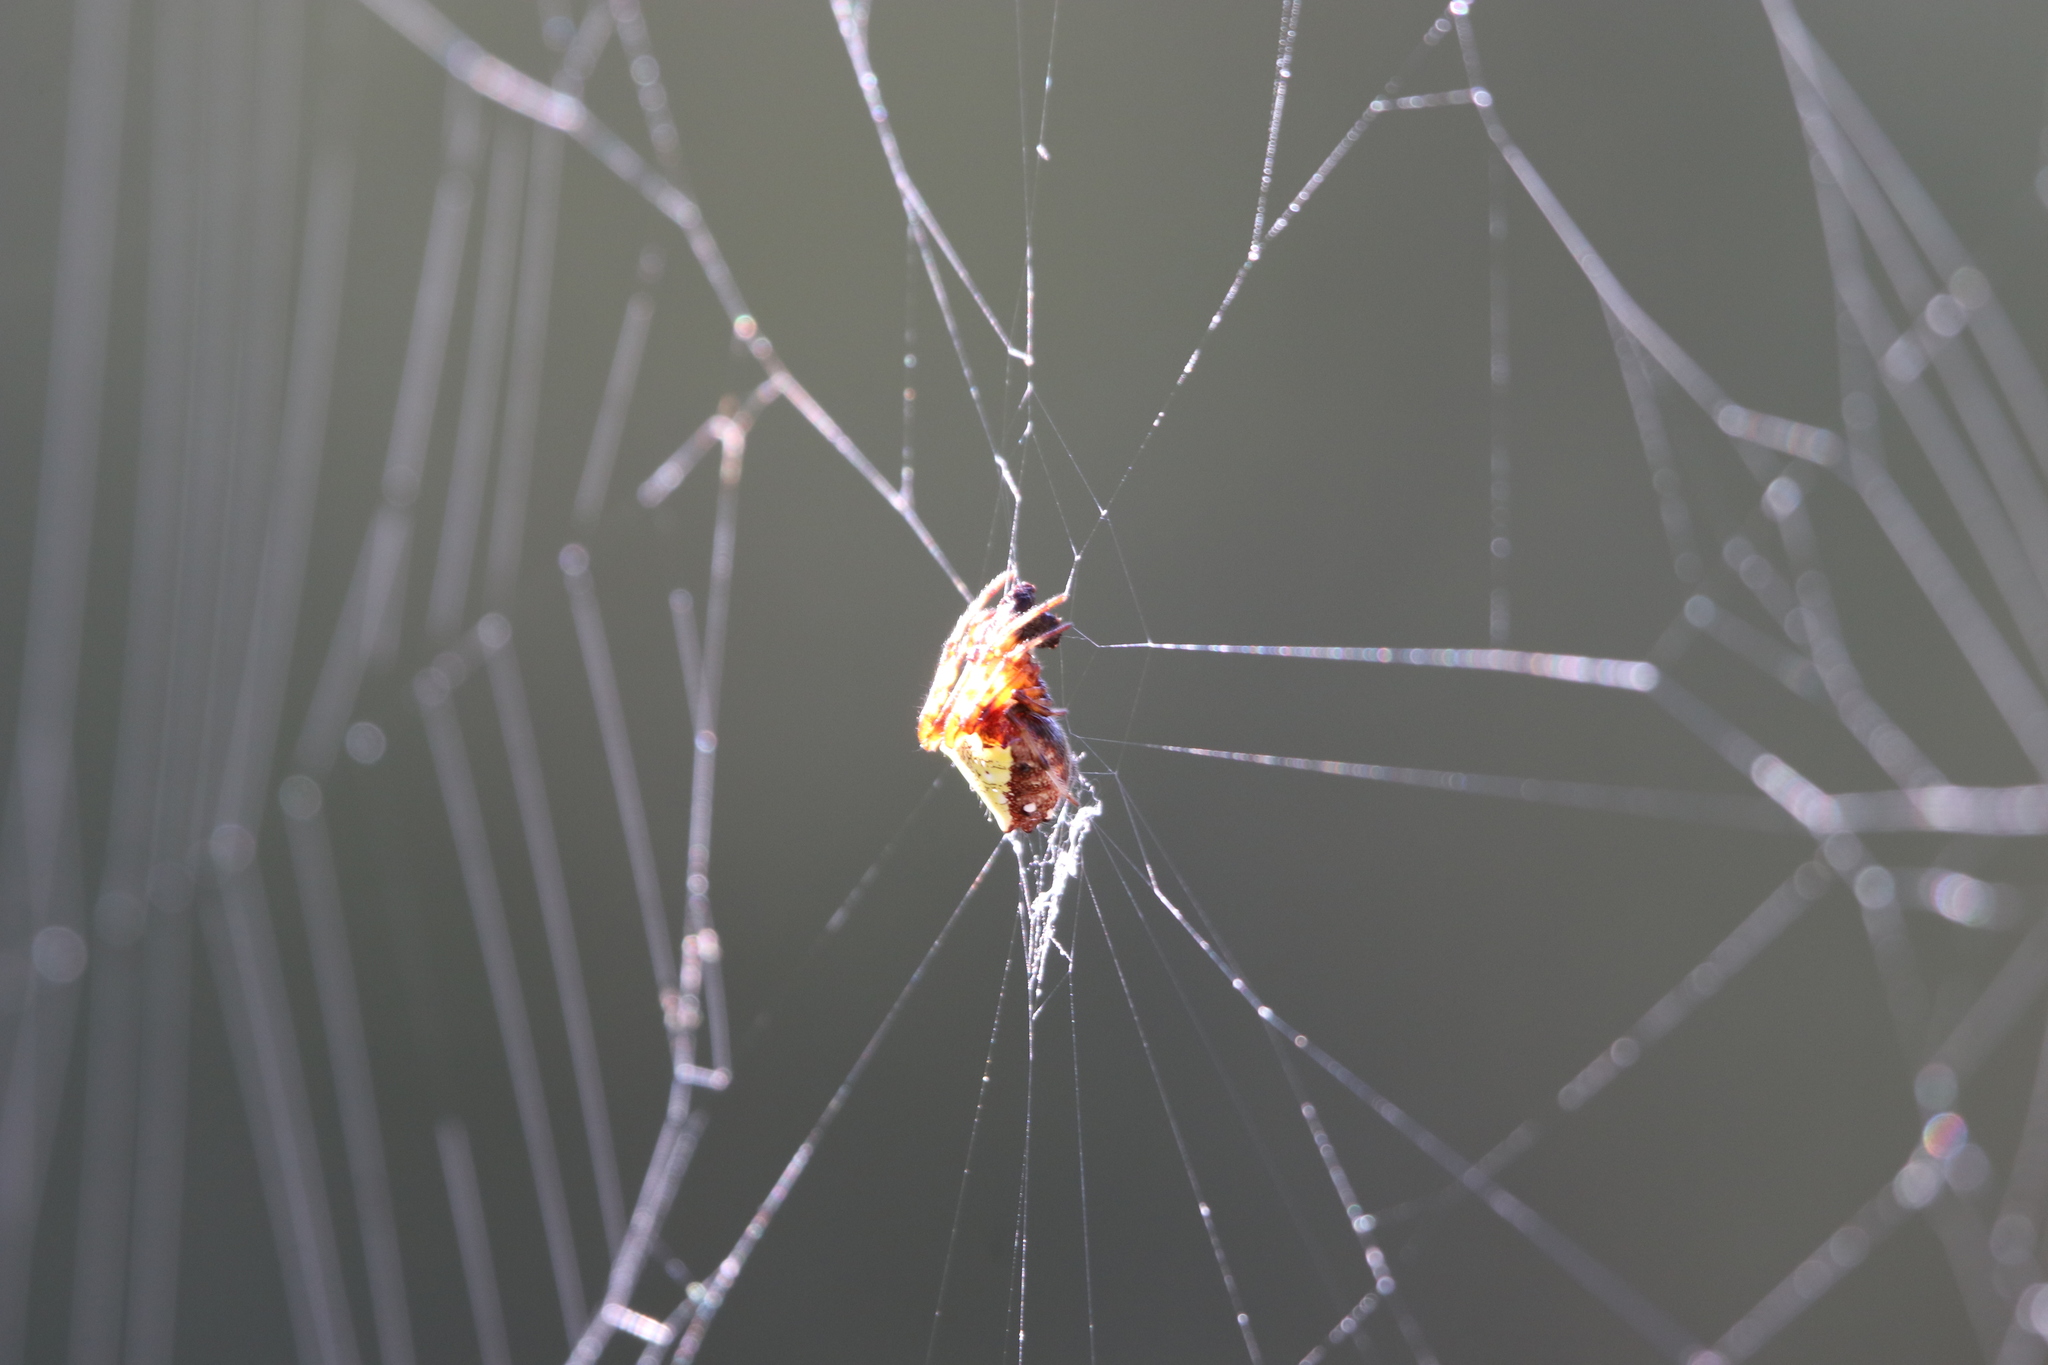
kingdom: Animalia
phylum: Arthropoda
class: Arachnida
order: Araneae
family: Araneidae
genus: Verrucosa
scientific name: Verrucosa arenata
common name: Orb weavers
